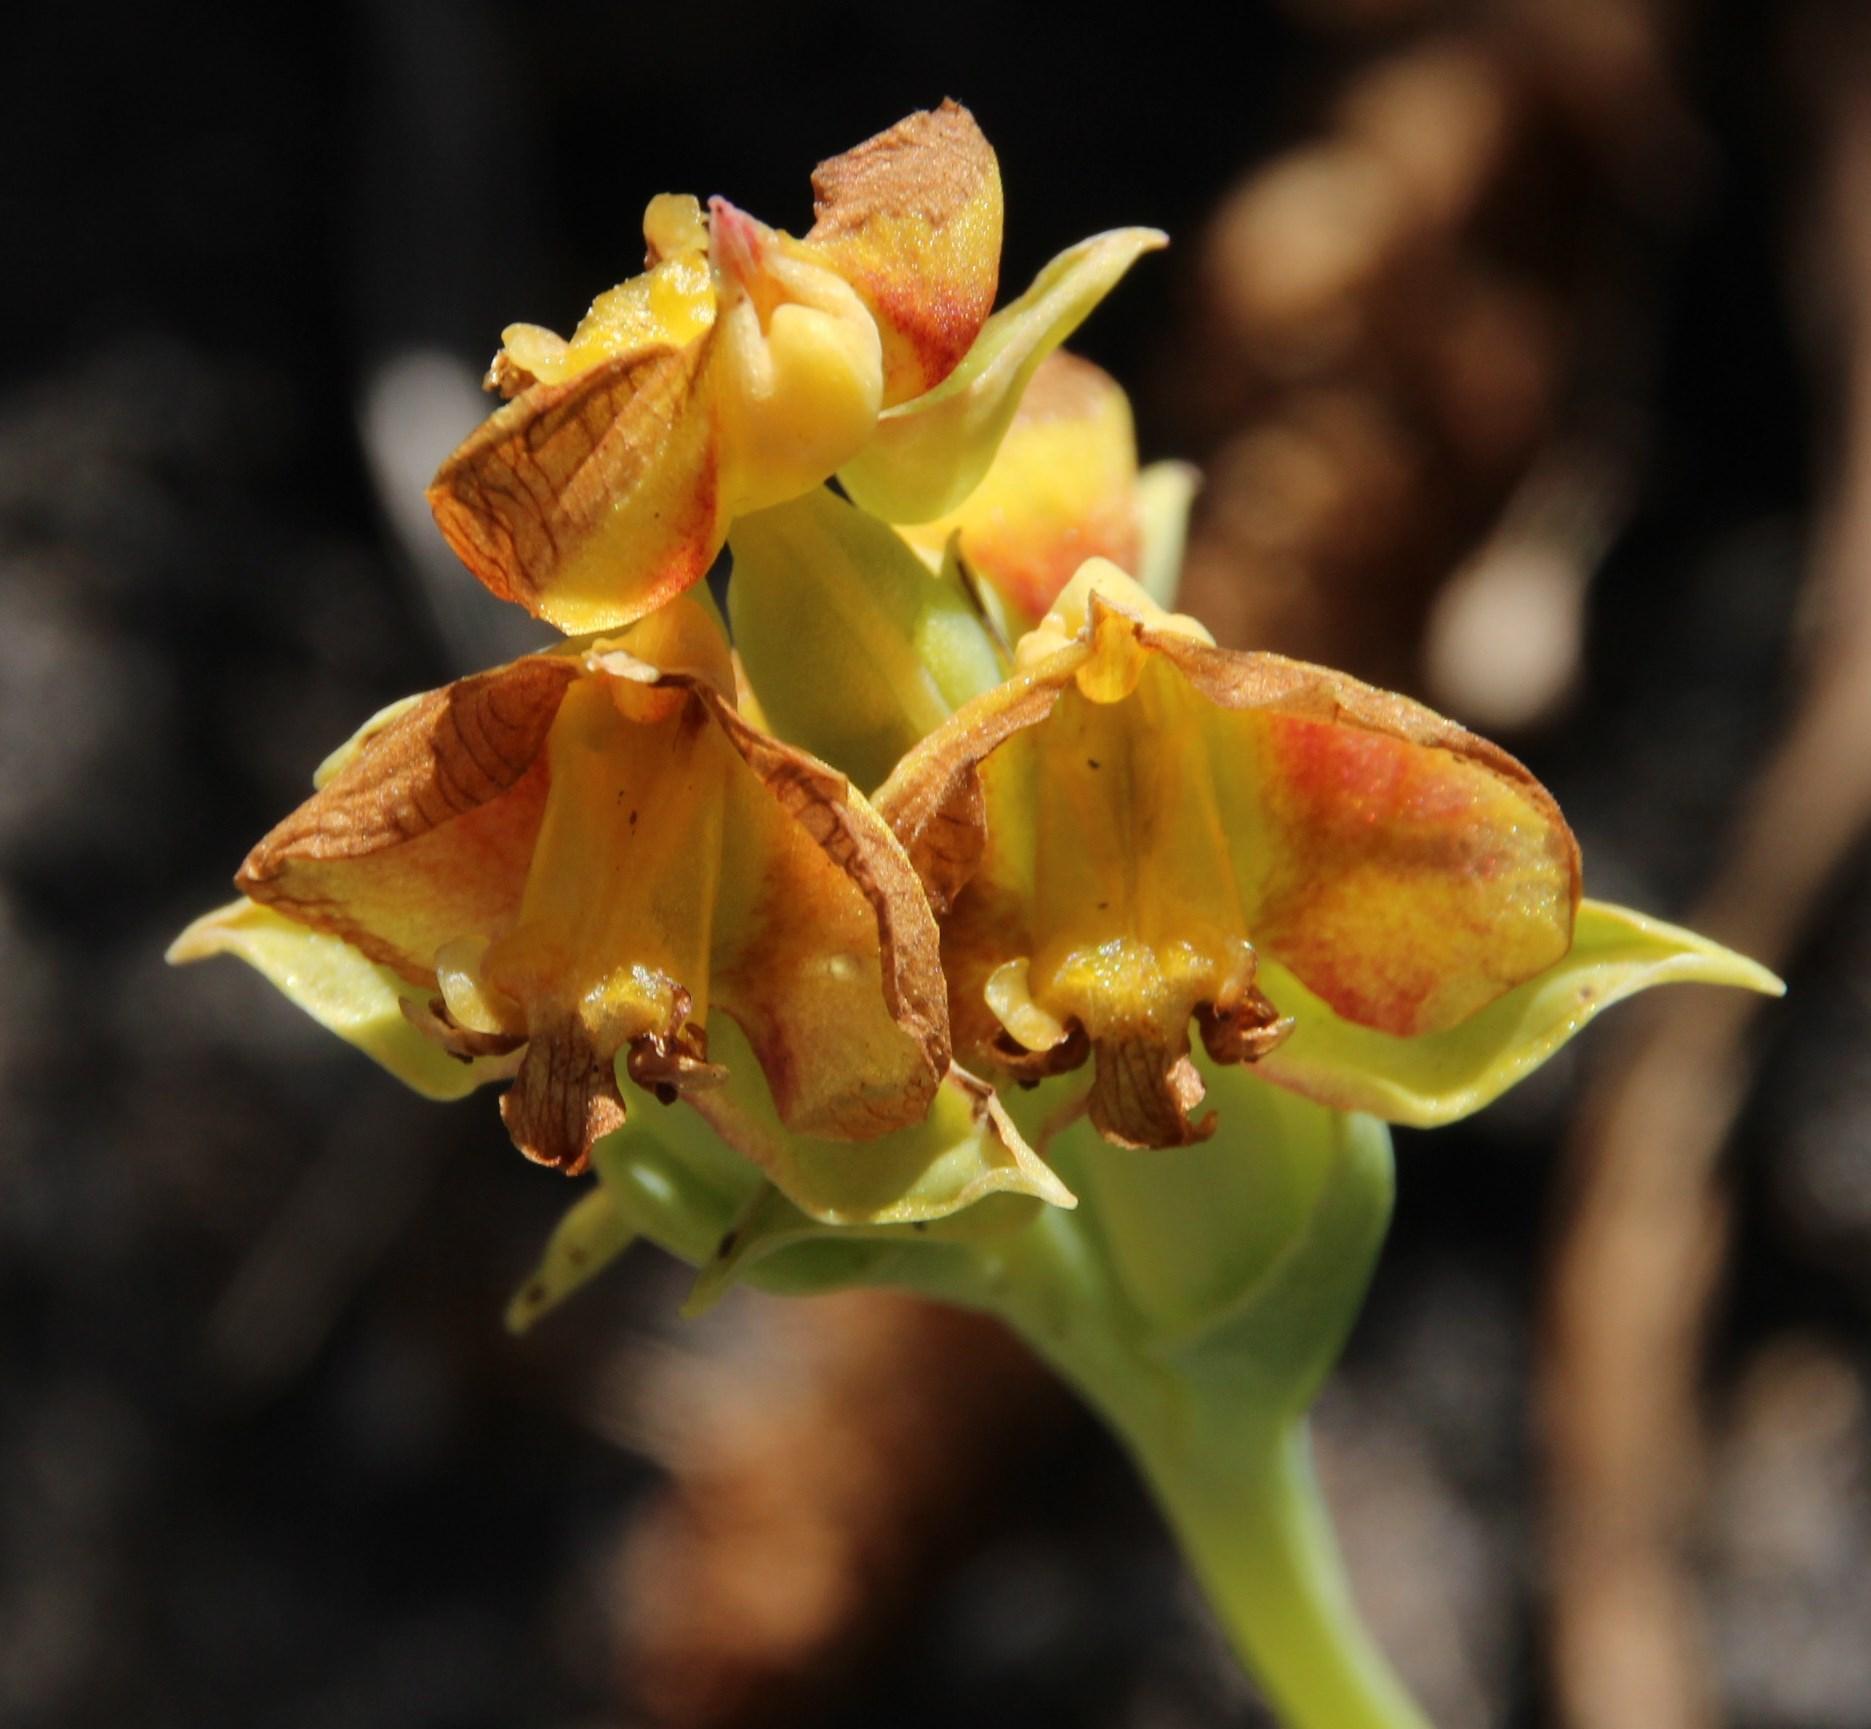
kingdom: Plantae
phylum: Tracheophyta
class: Liliopsida
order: Asparagales
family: Orchidaceae
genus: Pterygodium
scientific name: Pterygodium acutifolium
